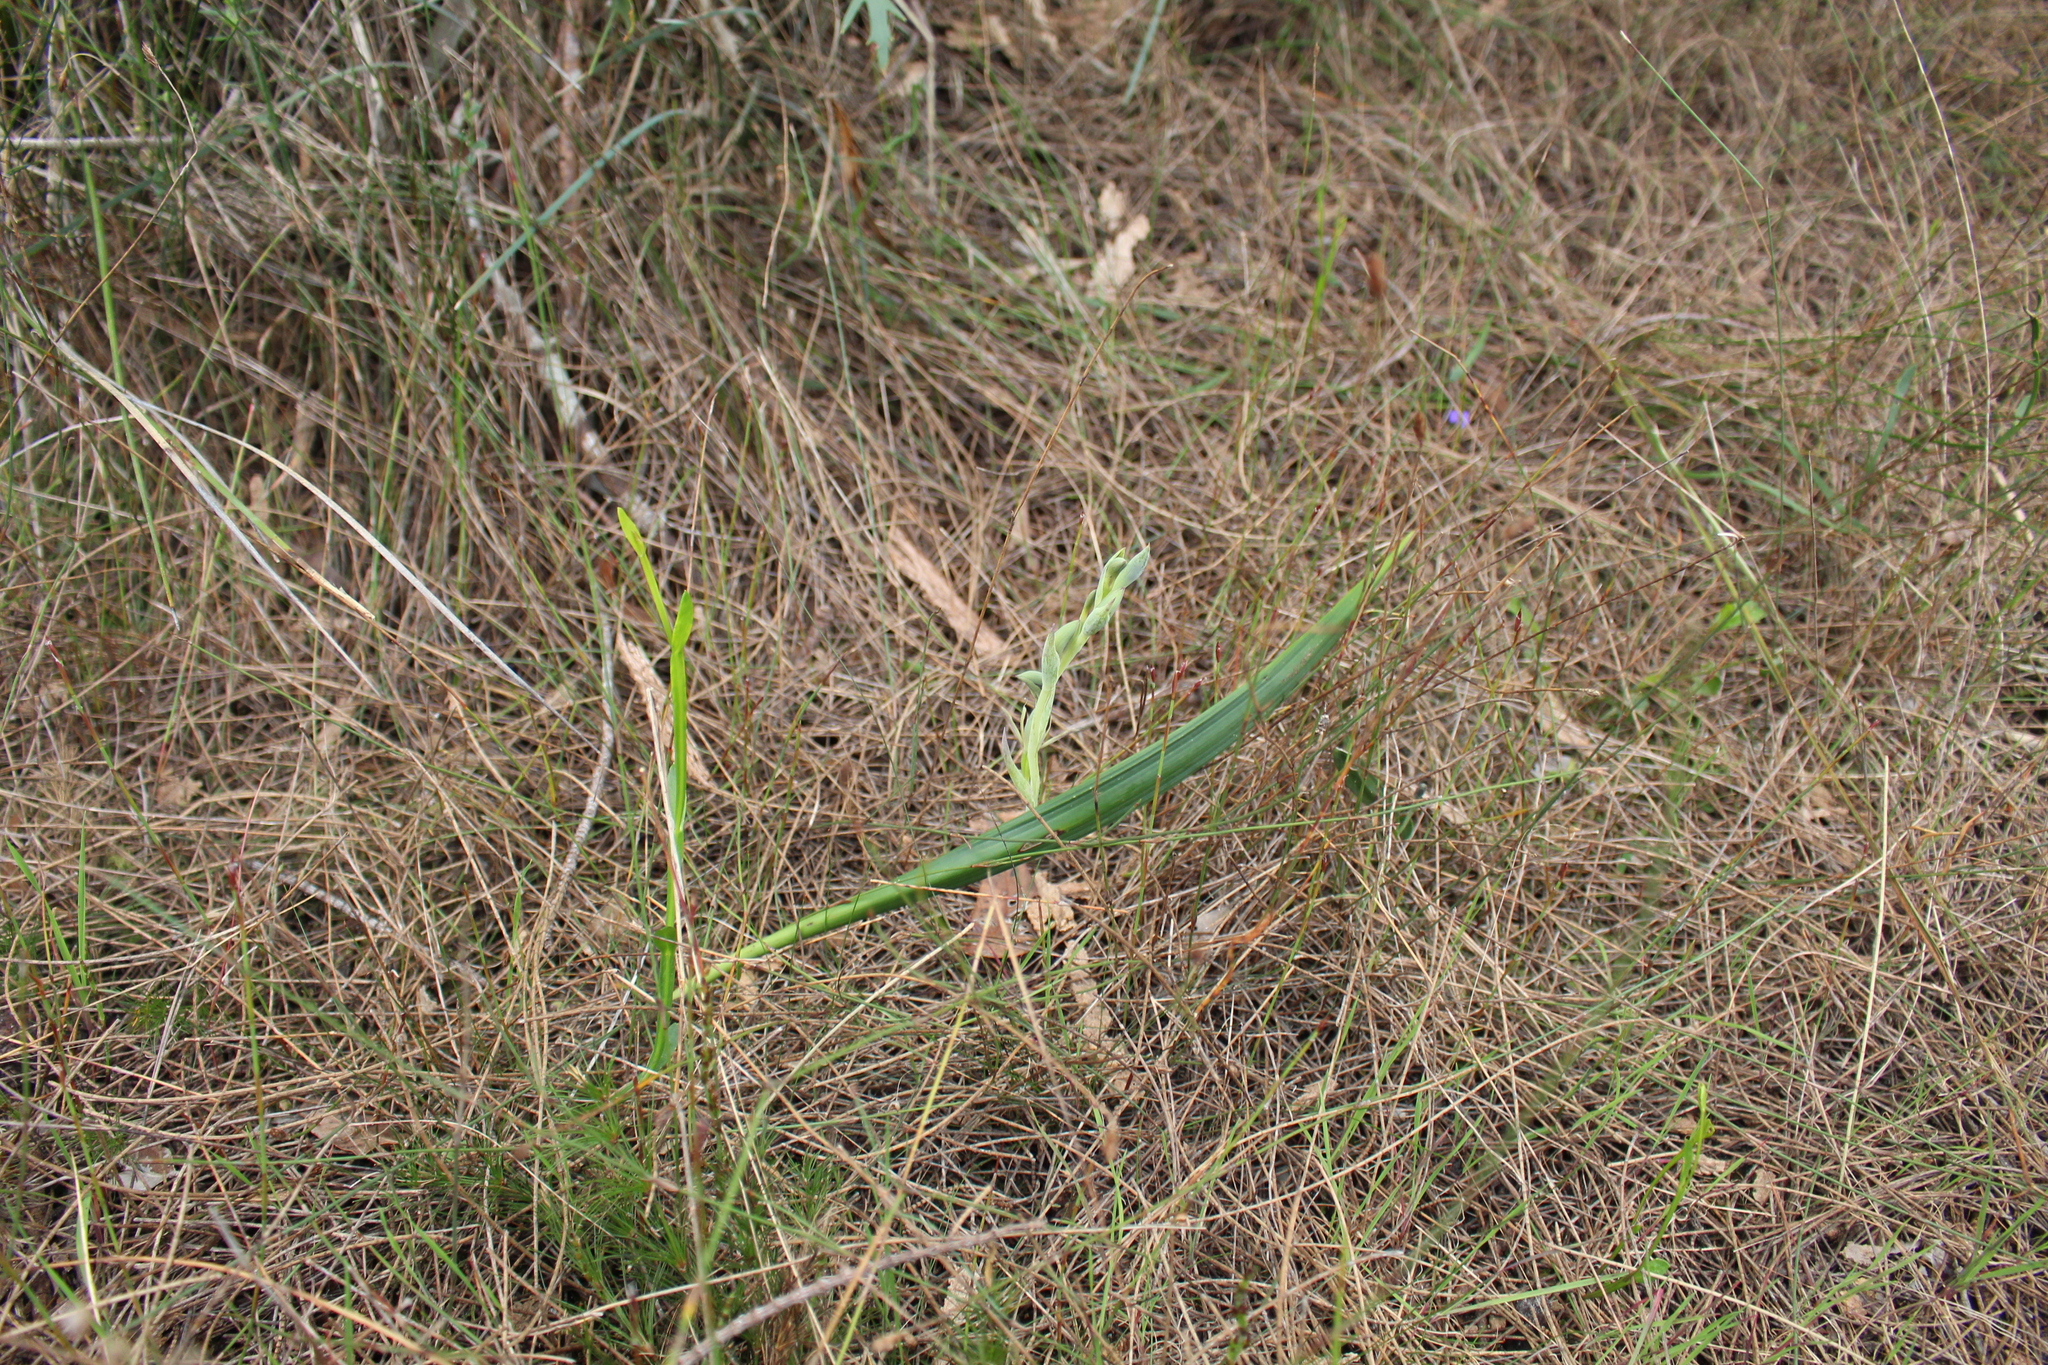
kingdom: Plantae
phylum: Tracheophyta
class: Liliopsida
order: Asparagales
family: Orchidaceae
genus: Lyperanthus
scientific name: Lyperanthus serratus
